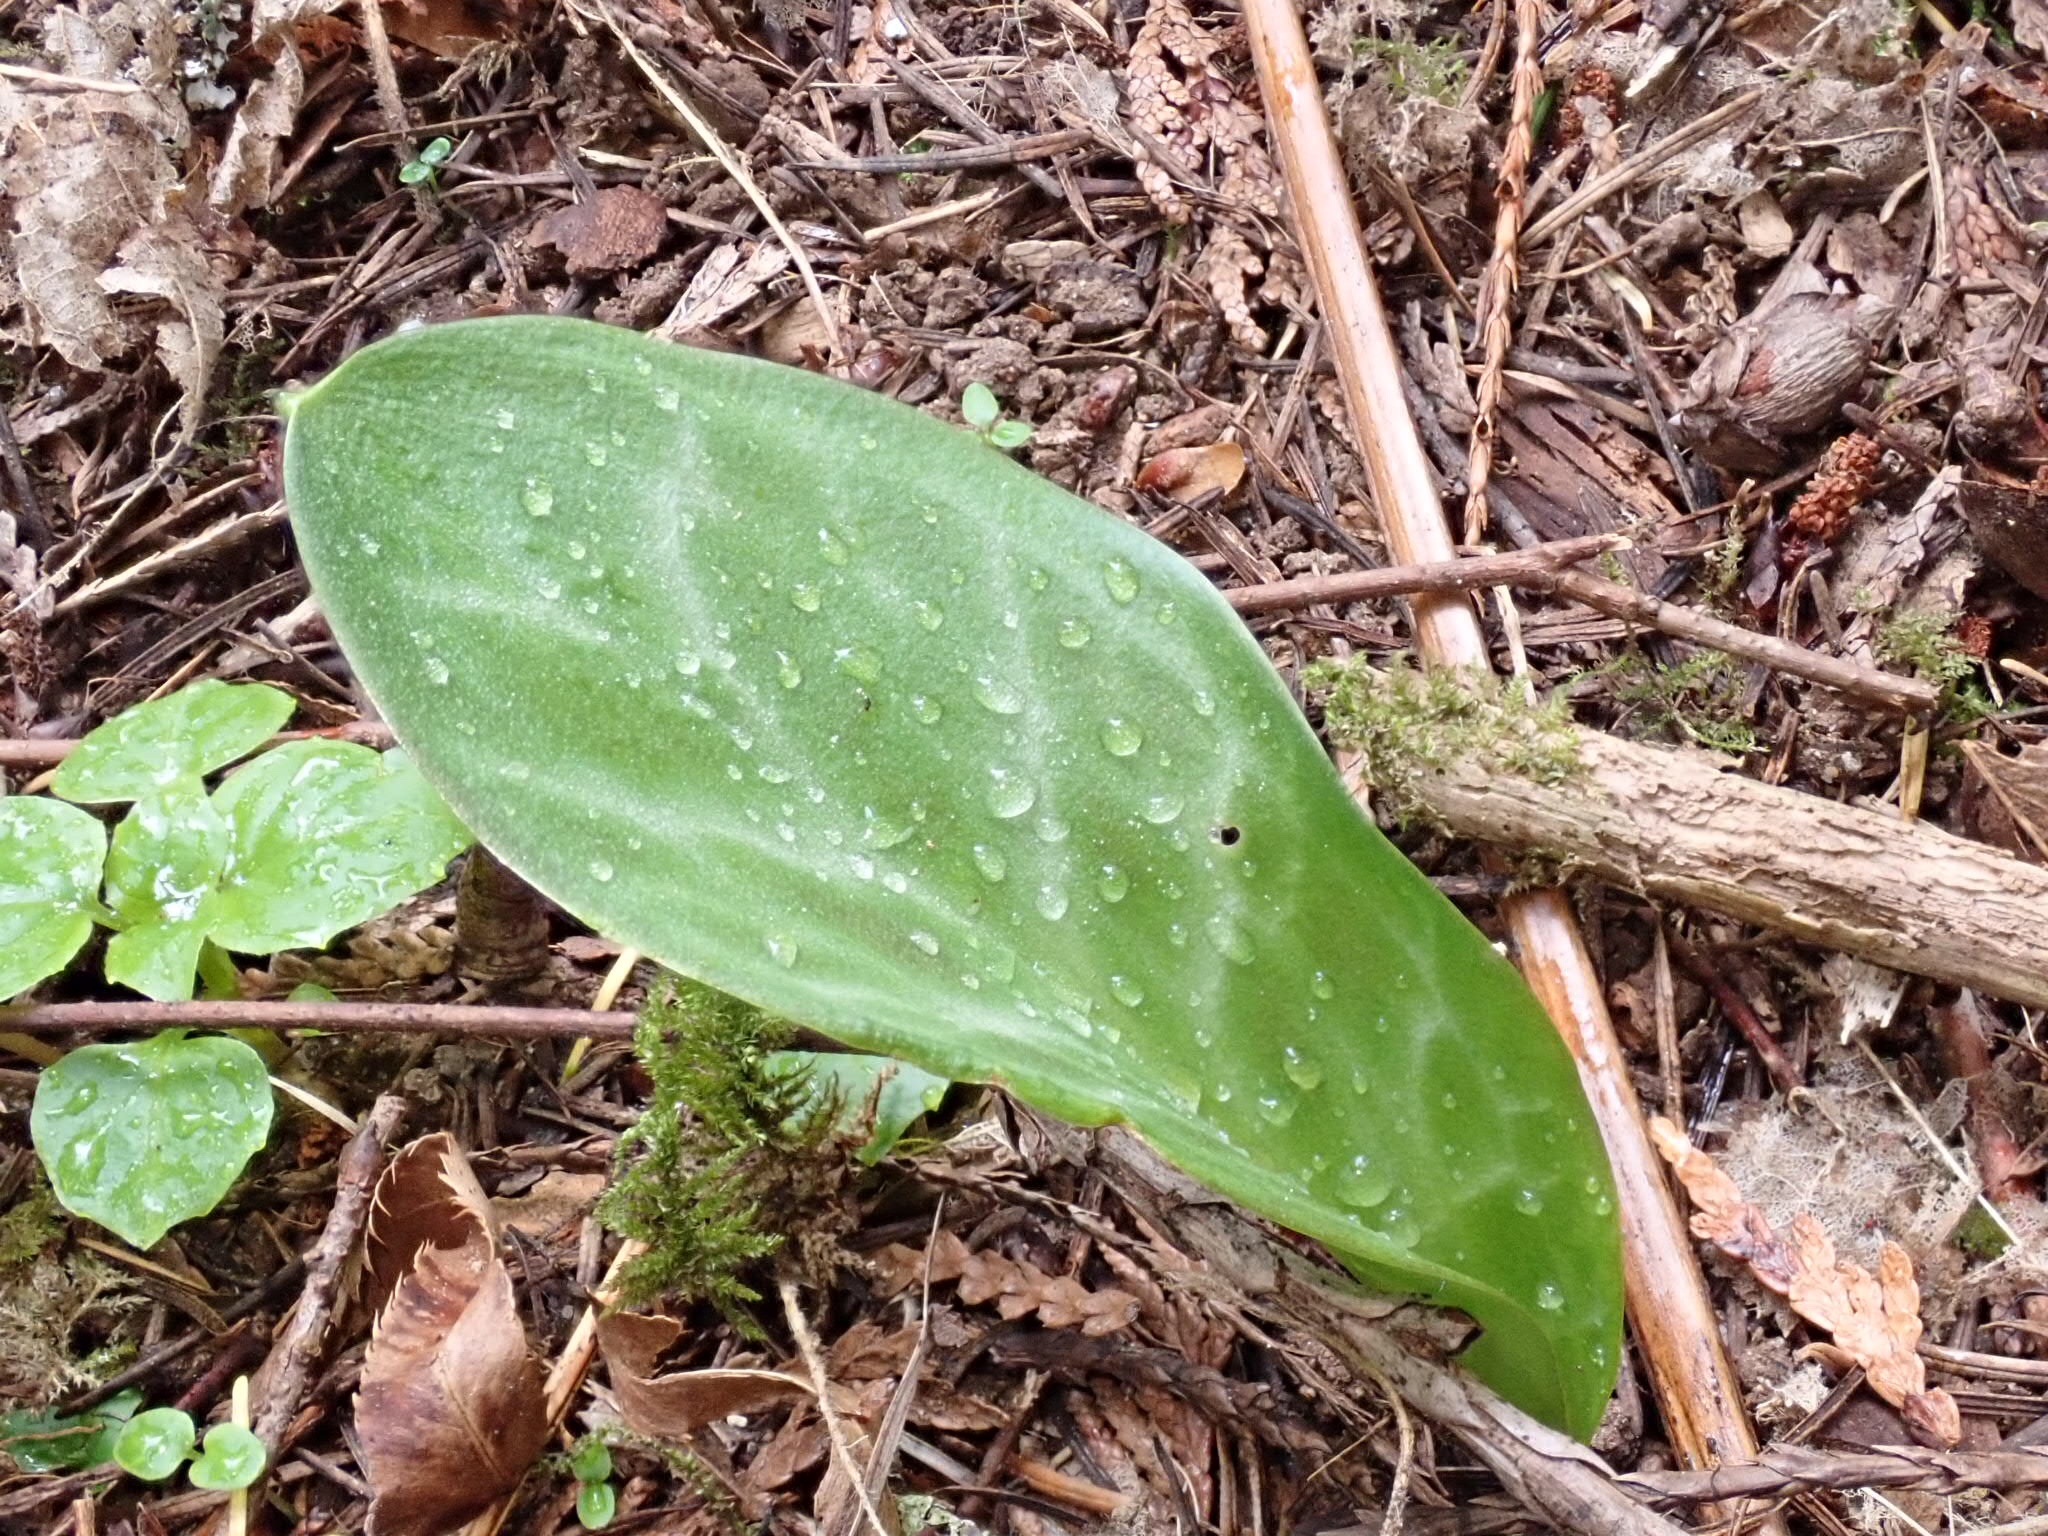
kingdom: Plantae
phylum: Tracheophyta
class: Liliopsida
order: Liliales
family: Liliaceae
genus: Erythronium
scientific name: Erythronium oregonum
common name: Giant adder's-tongue
